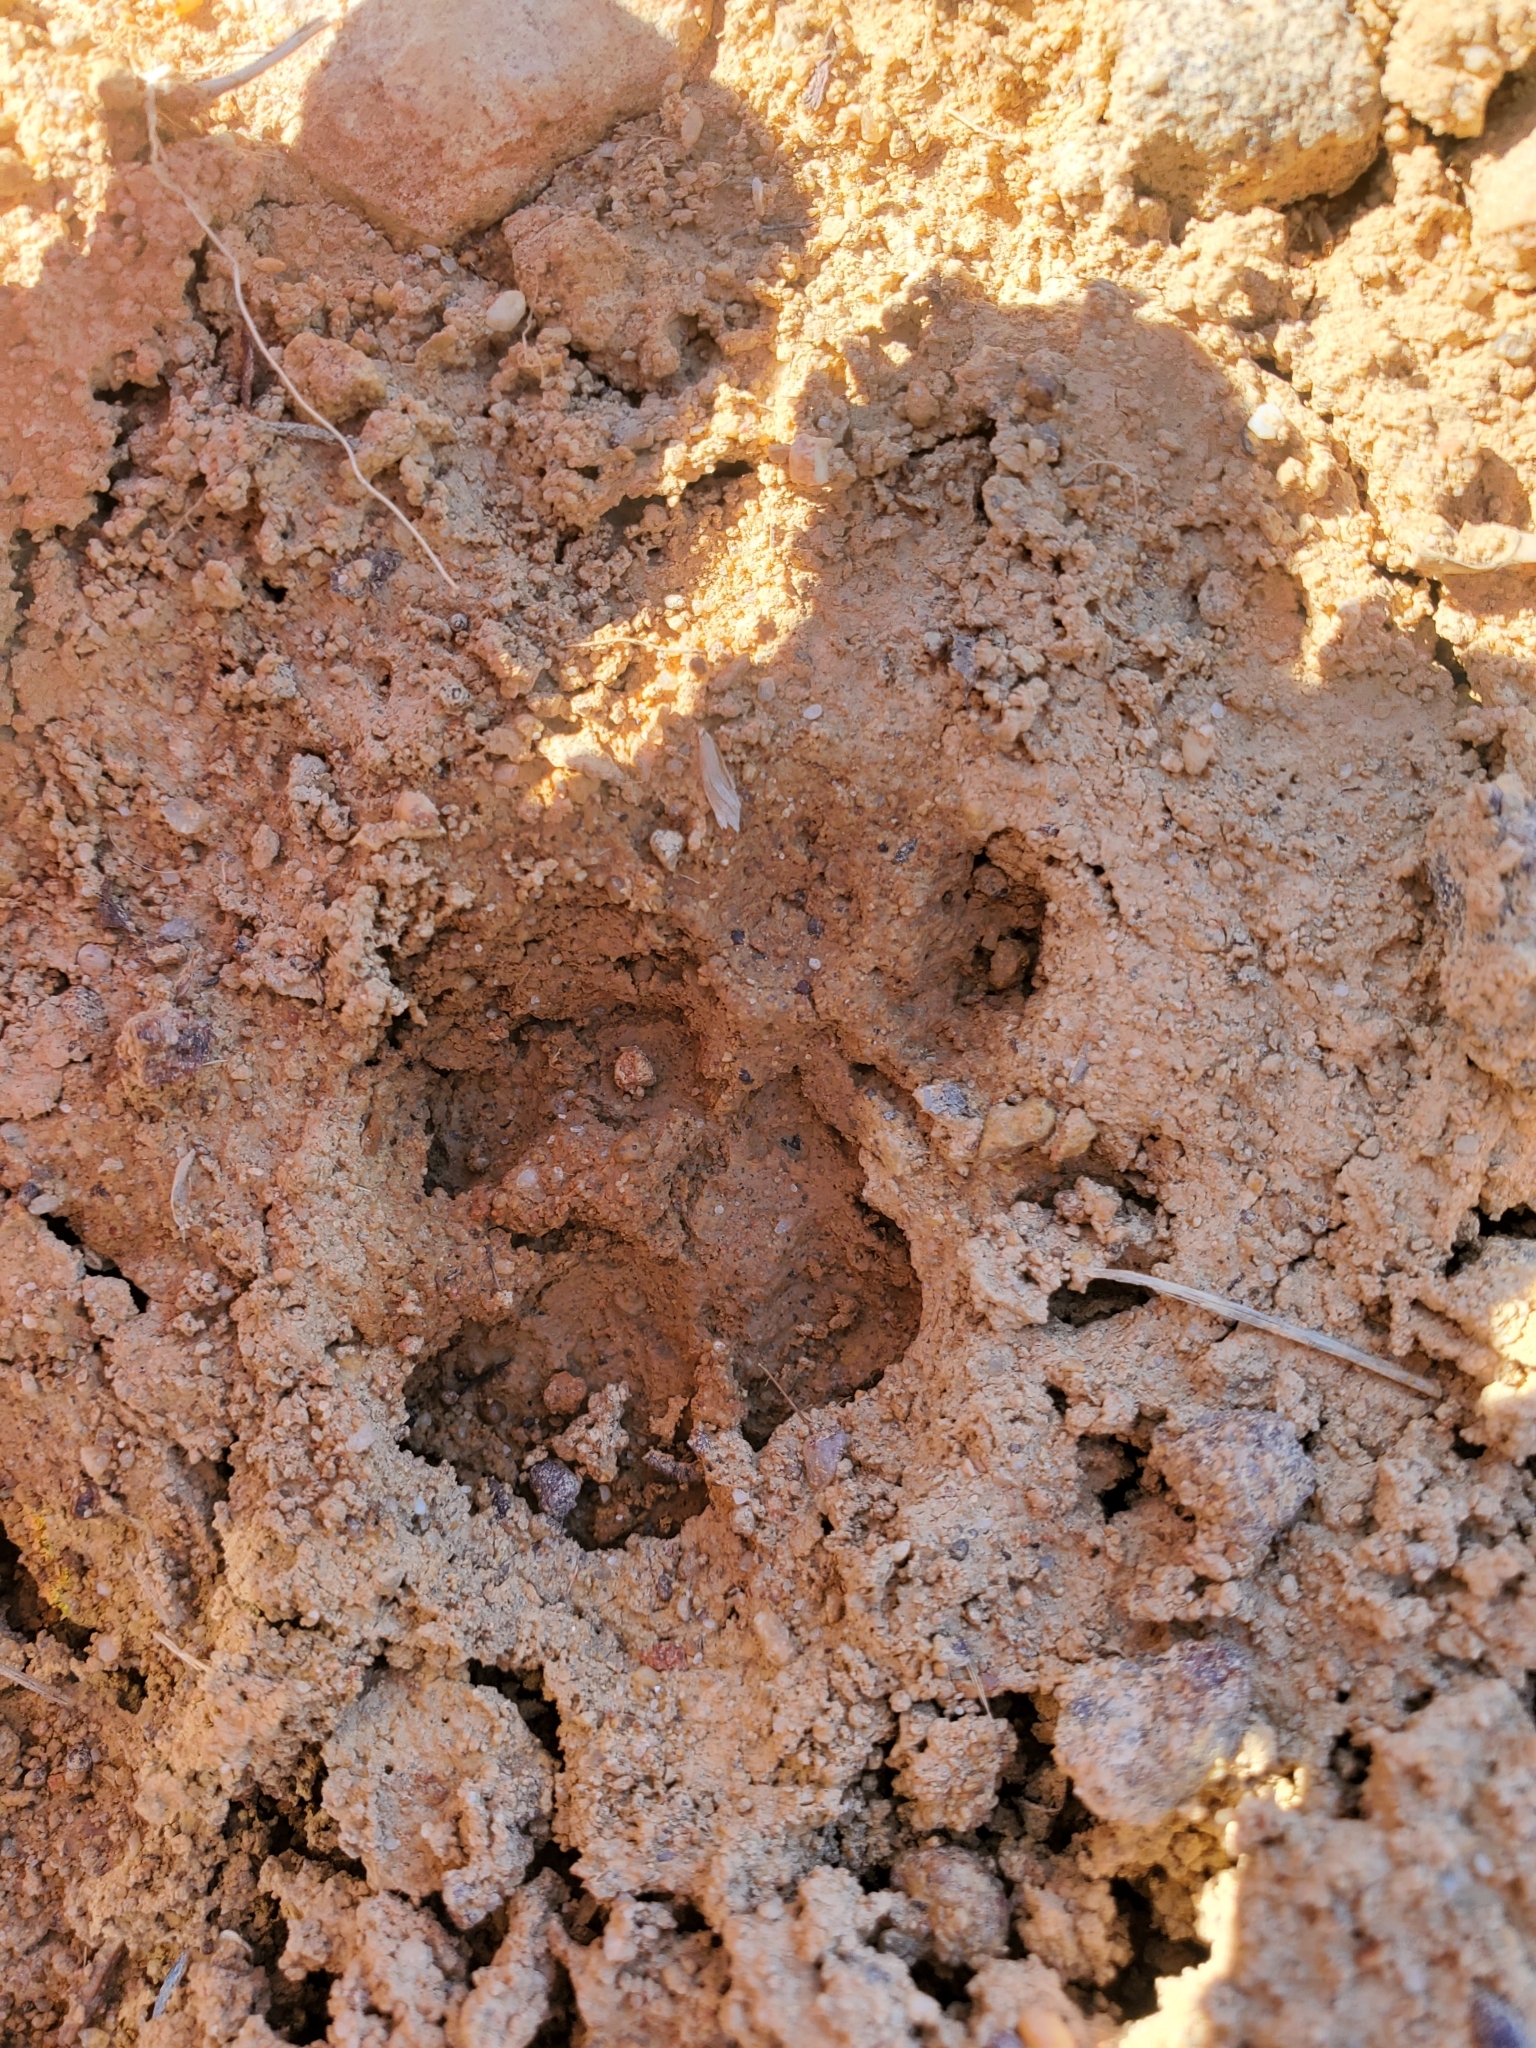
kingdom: Animalia
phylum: Chordata
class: Mammalia
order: Carnivora
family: Felidae
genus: Felis
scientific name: Felis catus
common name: Domestic cat
